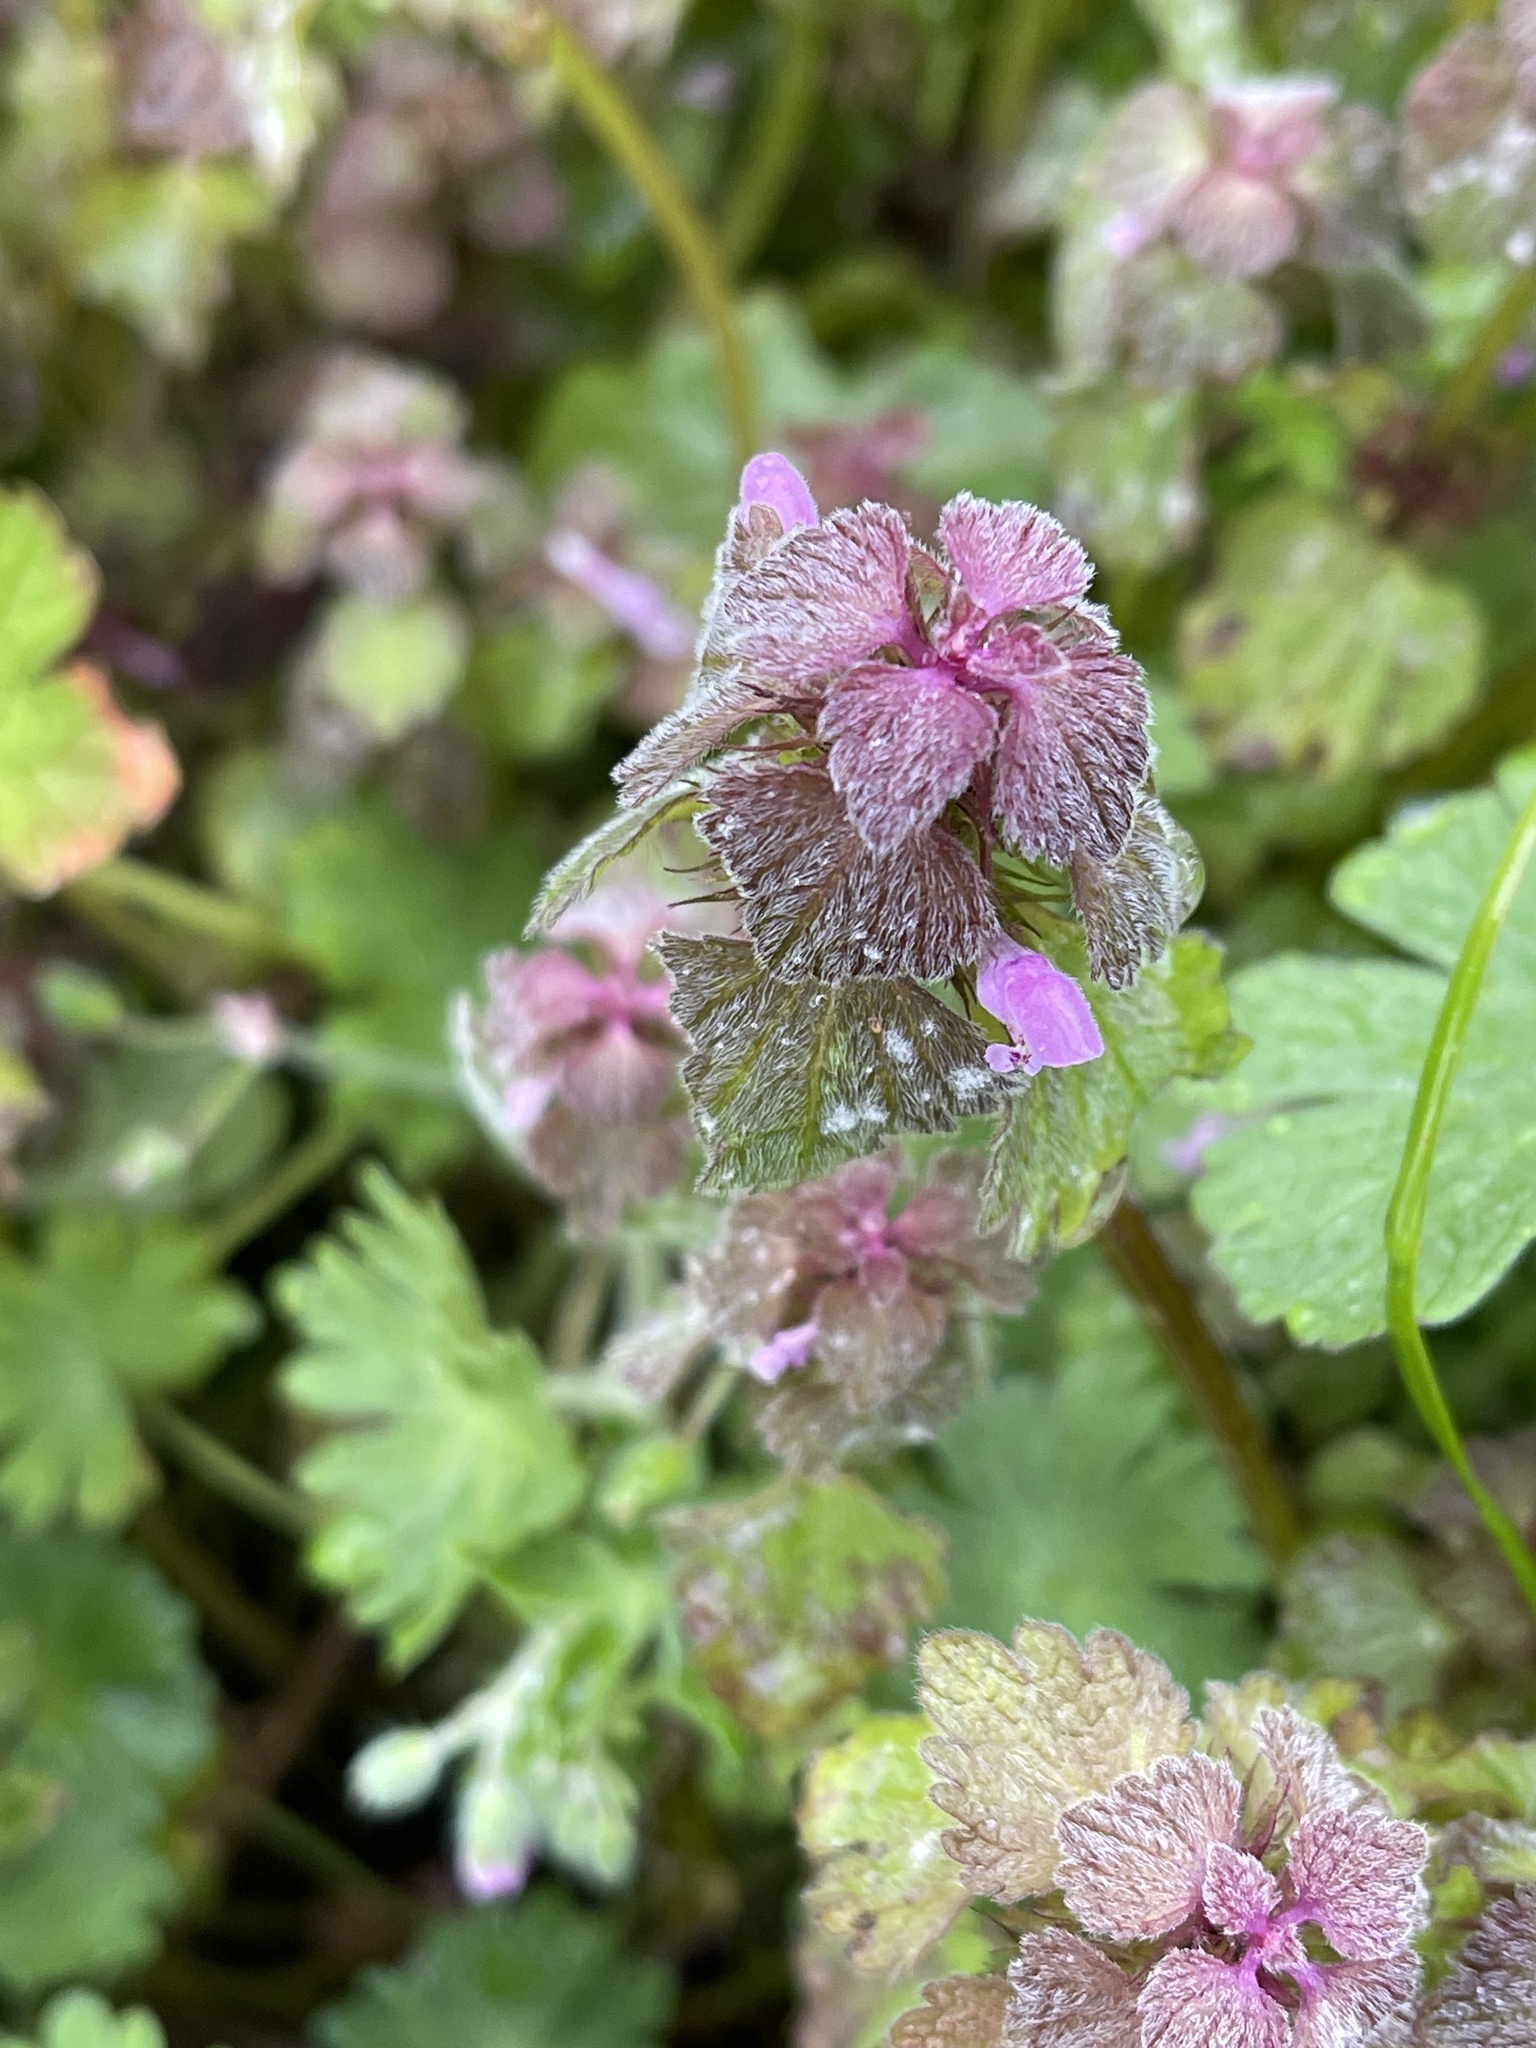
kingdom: Plantae
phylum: Tracheophyta
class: Magnoliopsida
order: Lamiales
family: Lamiaceae
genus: Lamium
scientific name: Lamium purpureum
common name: Red dead-nettle
